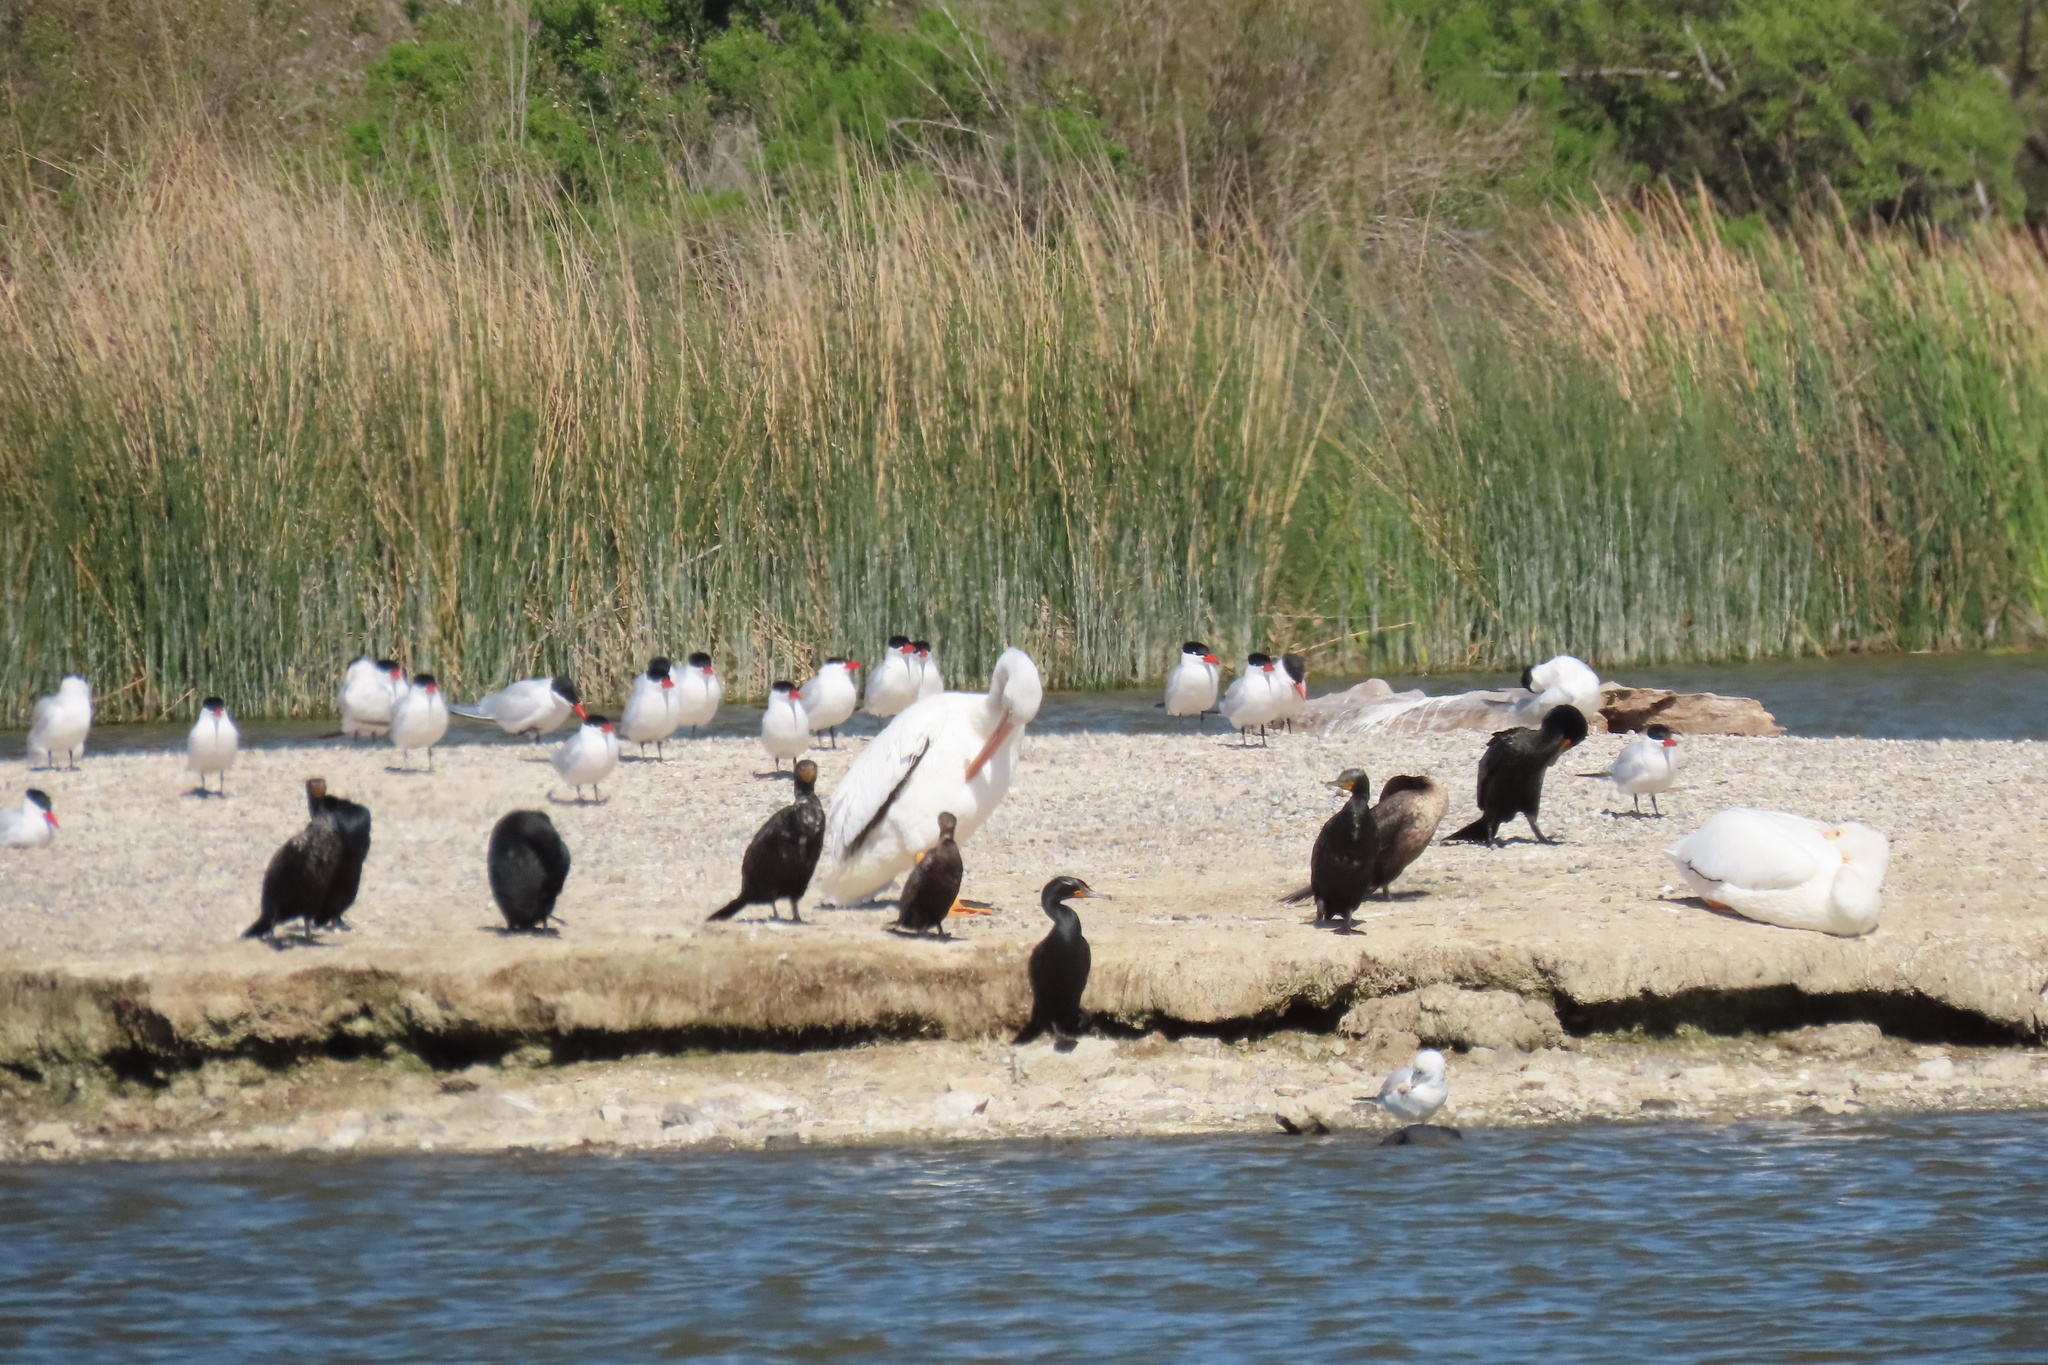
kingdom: Animalia
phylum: Chordata
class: Aves
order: Charadriiformes
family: Laridae
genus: Hydroprogne
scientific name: Hydroprogne caspia
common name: Caspian tern
